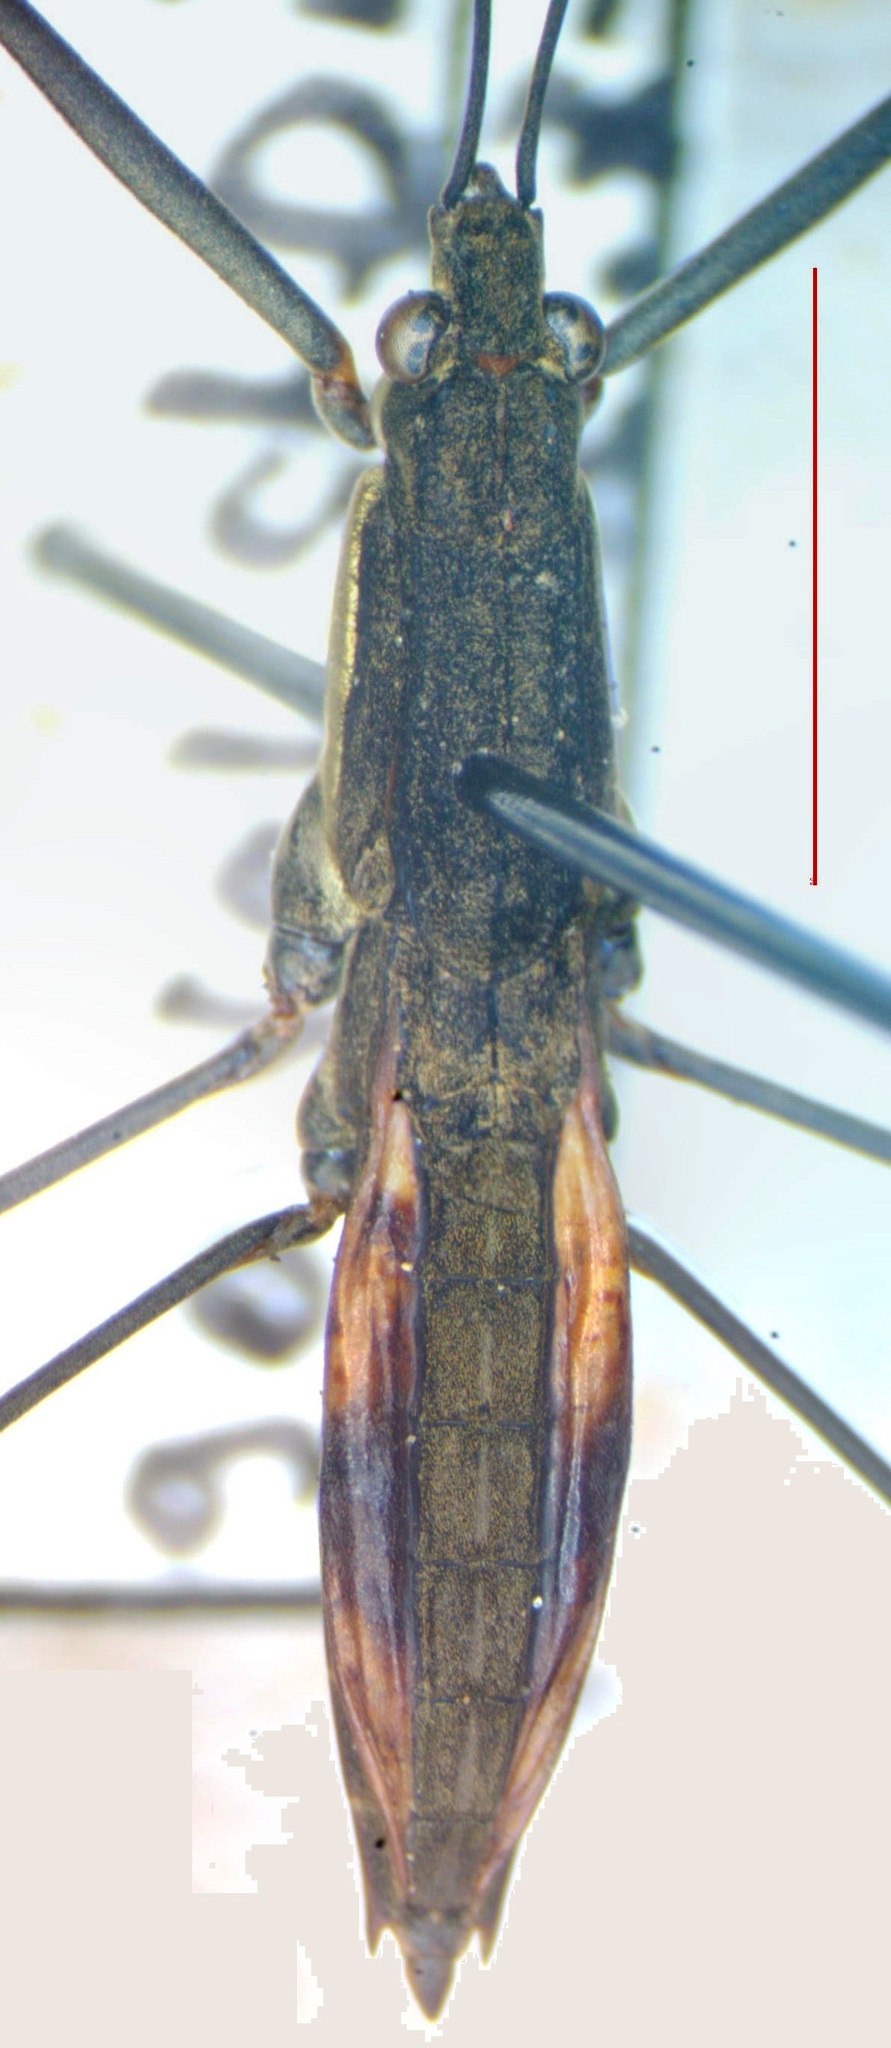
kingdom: Animalia
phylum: Arthropoda
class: Insecta
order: Hemiptera
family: Gerridae
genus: Aquarius
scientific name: Aquarius najas
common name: River skater
